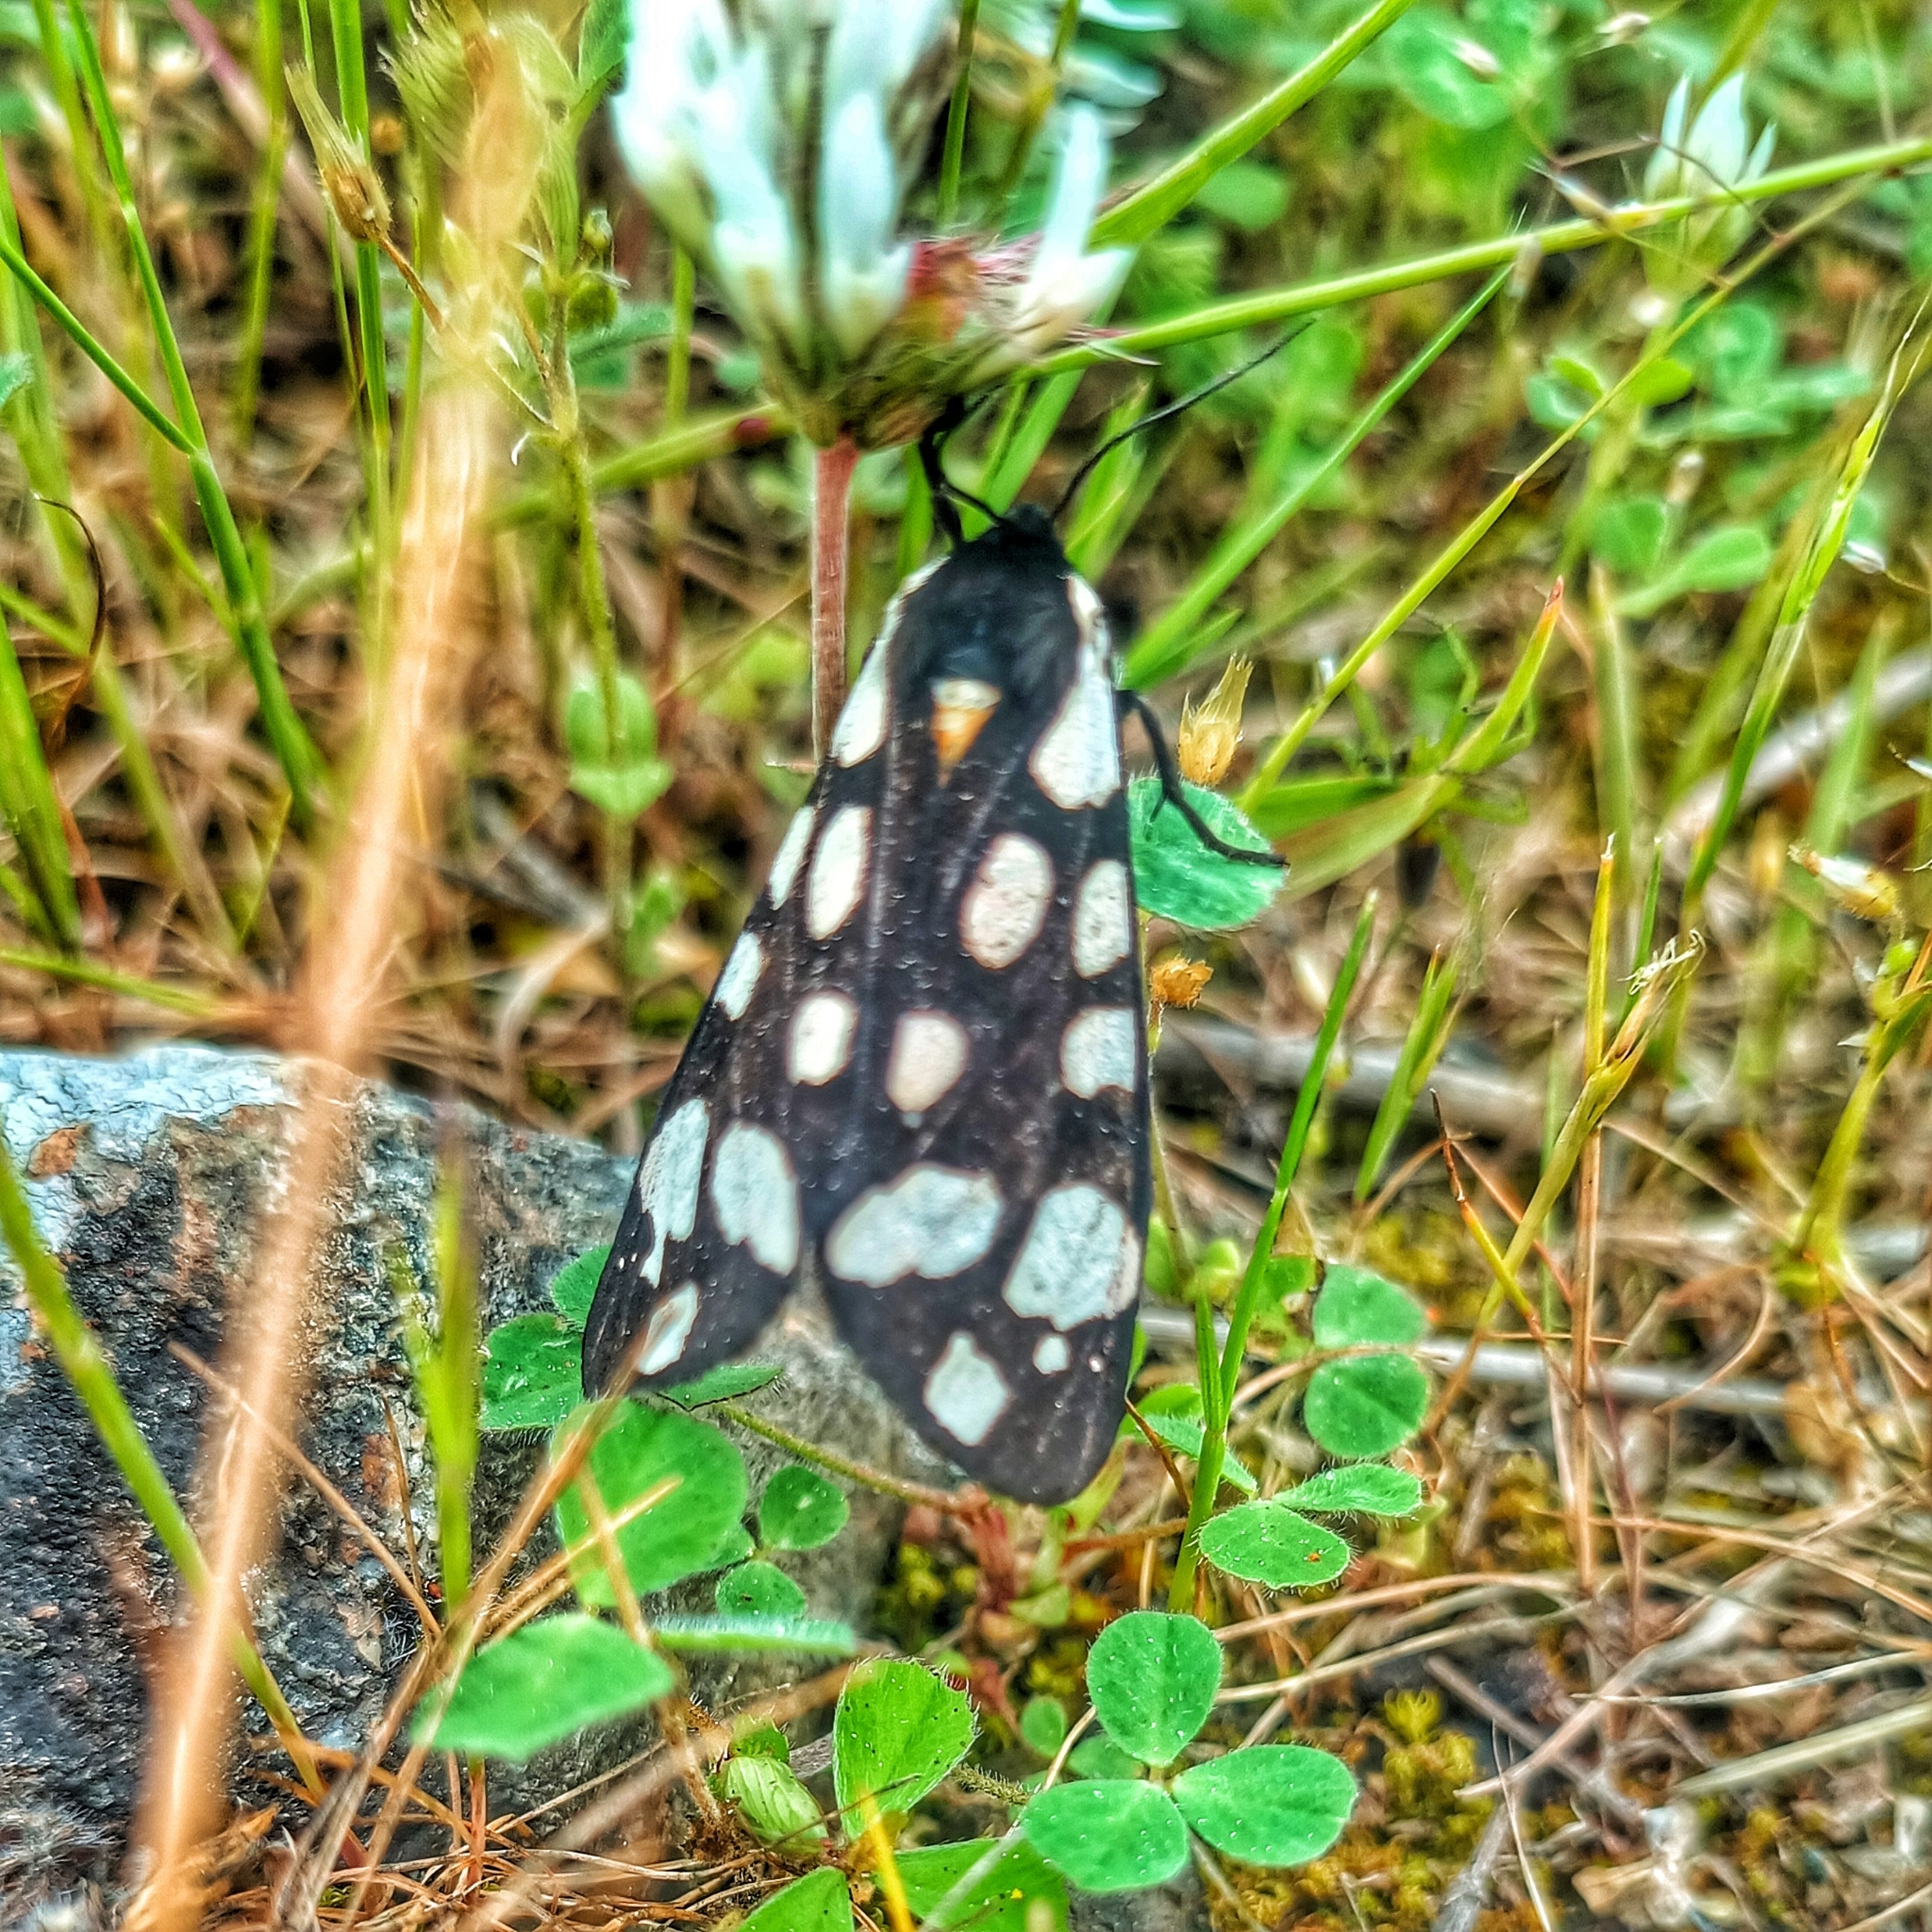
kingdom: Animalia
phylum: Arthropoda
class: Insecta
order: Lepidoptera
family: Erebidae
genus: Epicallia
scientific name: Epicallia villica
